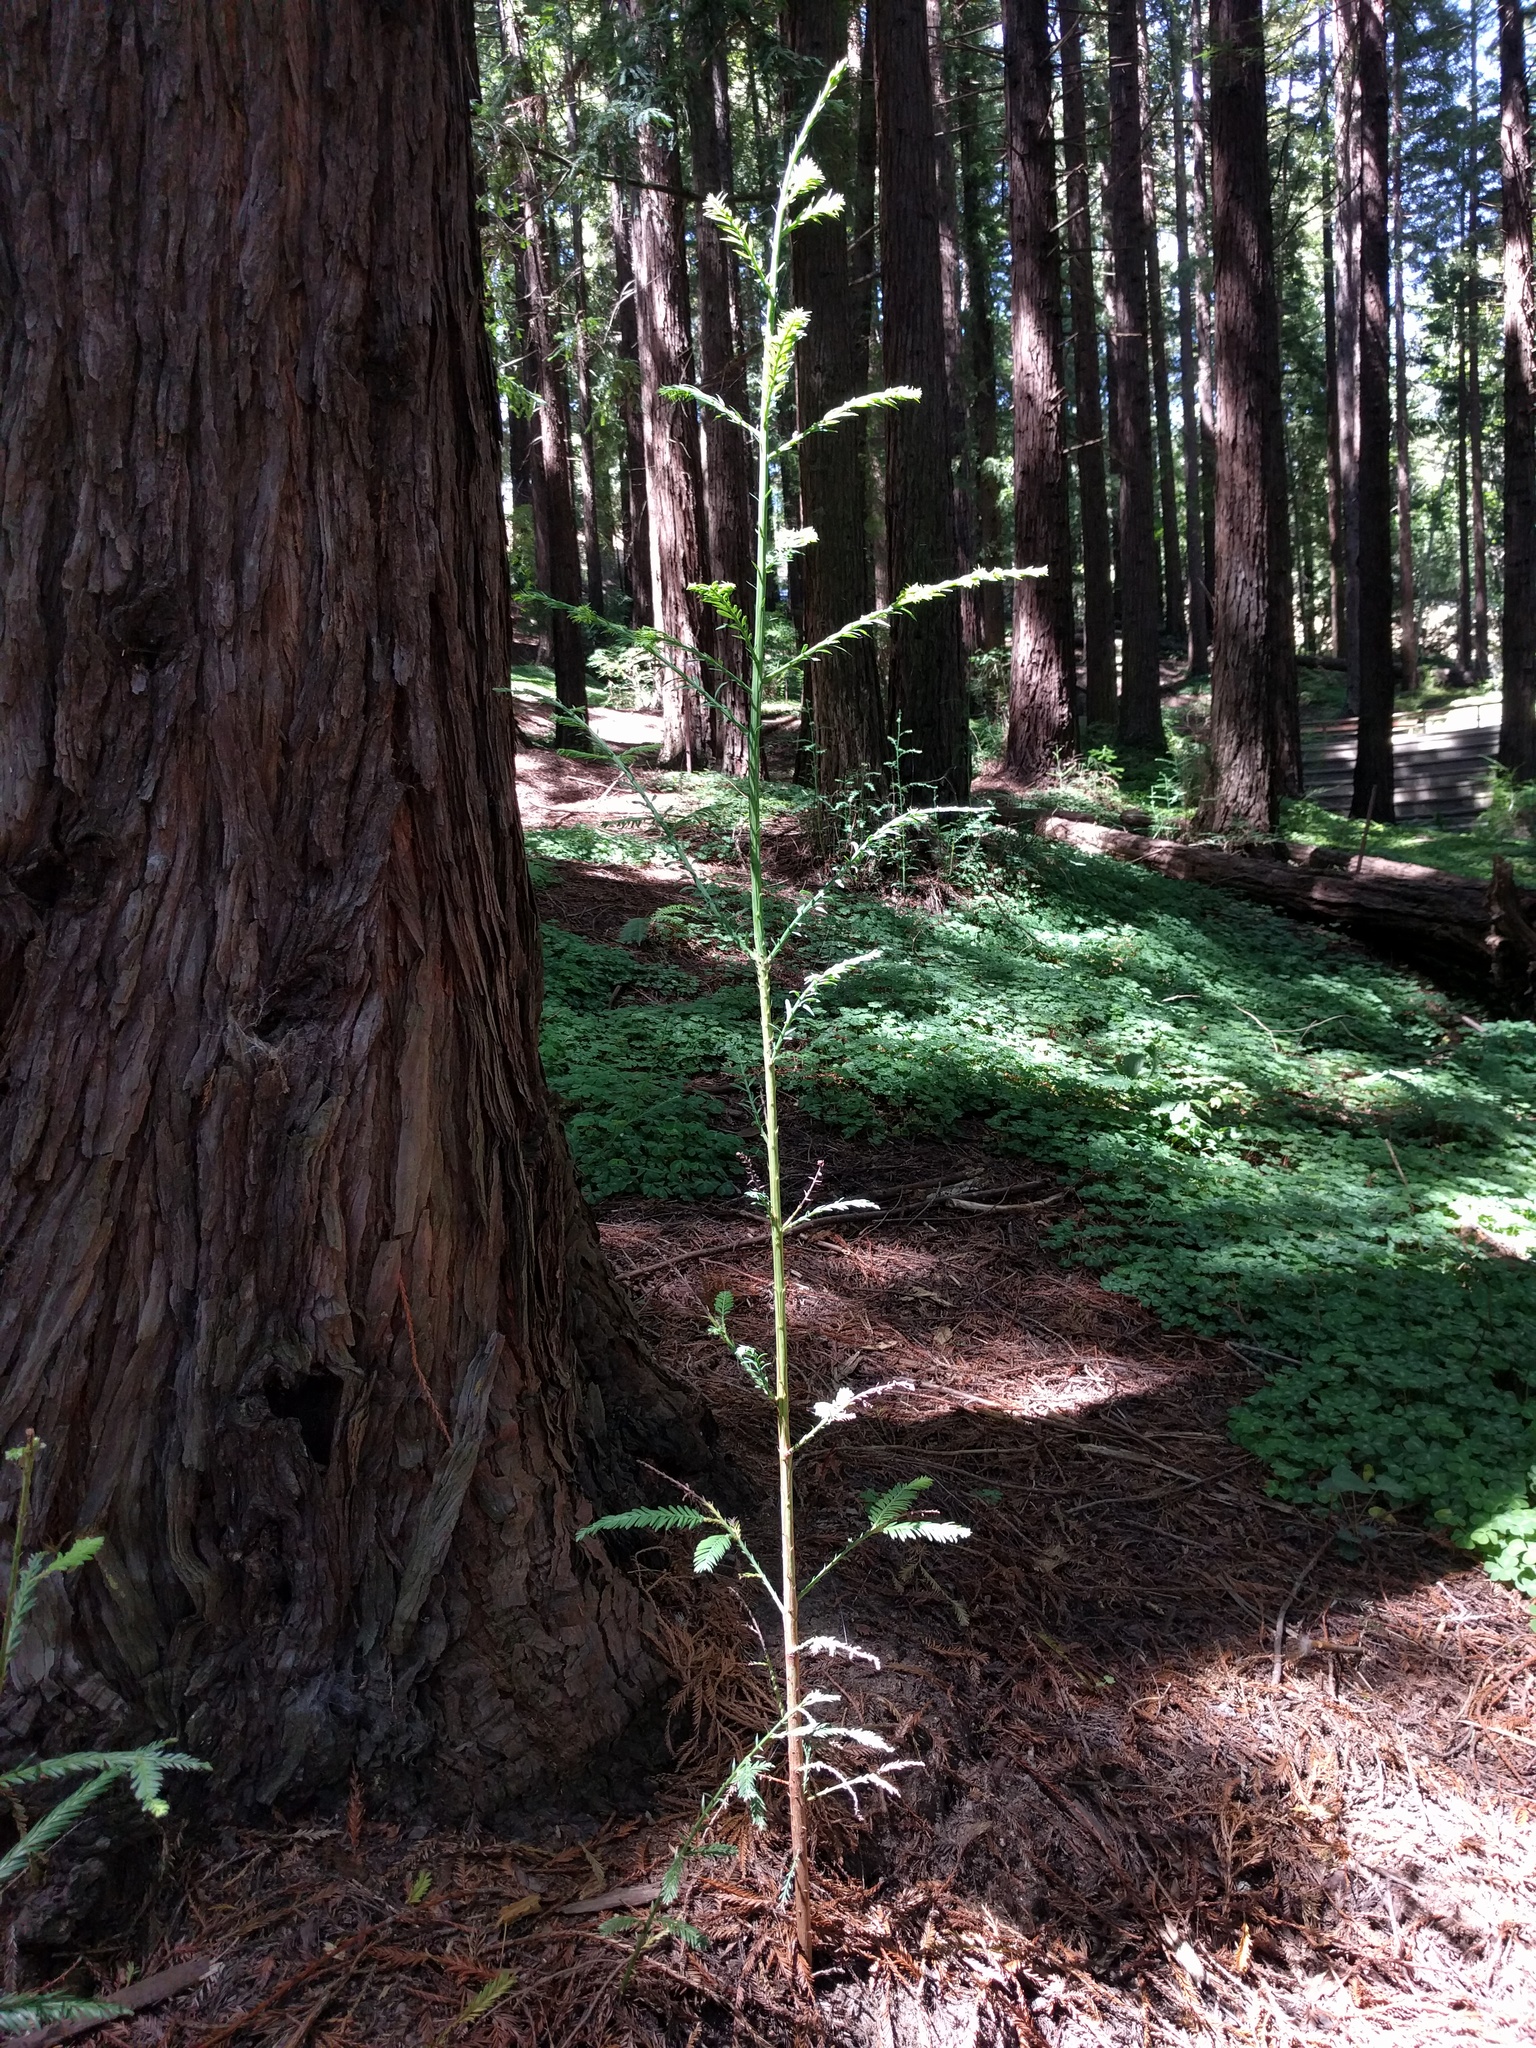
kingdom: Plantae
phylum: Tracheophyta
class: Pinopsida
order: Pinales
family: Cupressaceae
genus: Sequoia
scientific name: Sequoia sempervirens
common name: Coast redwood
